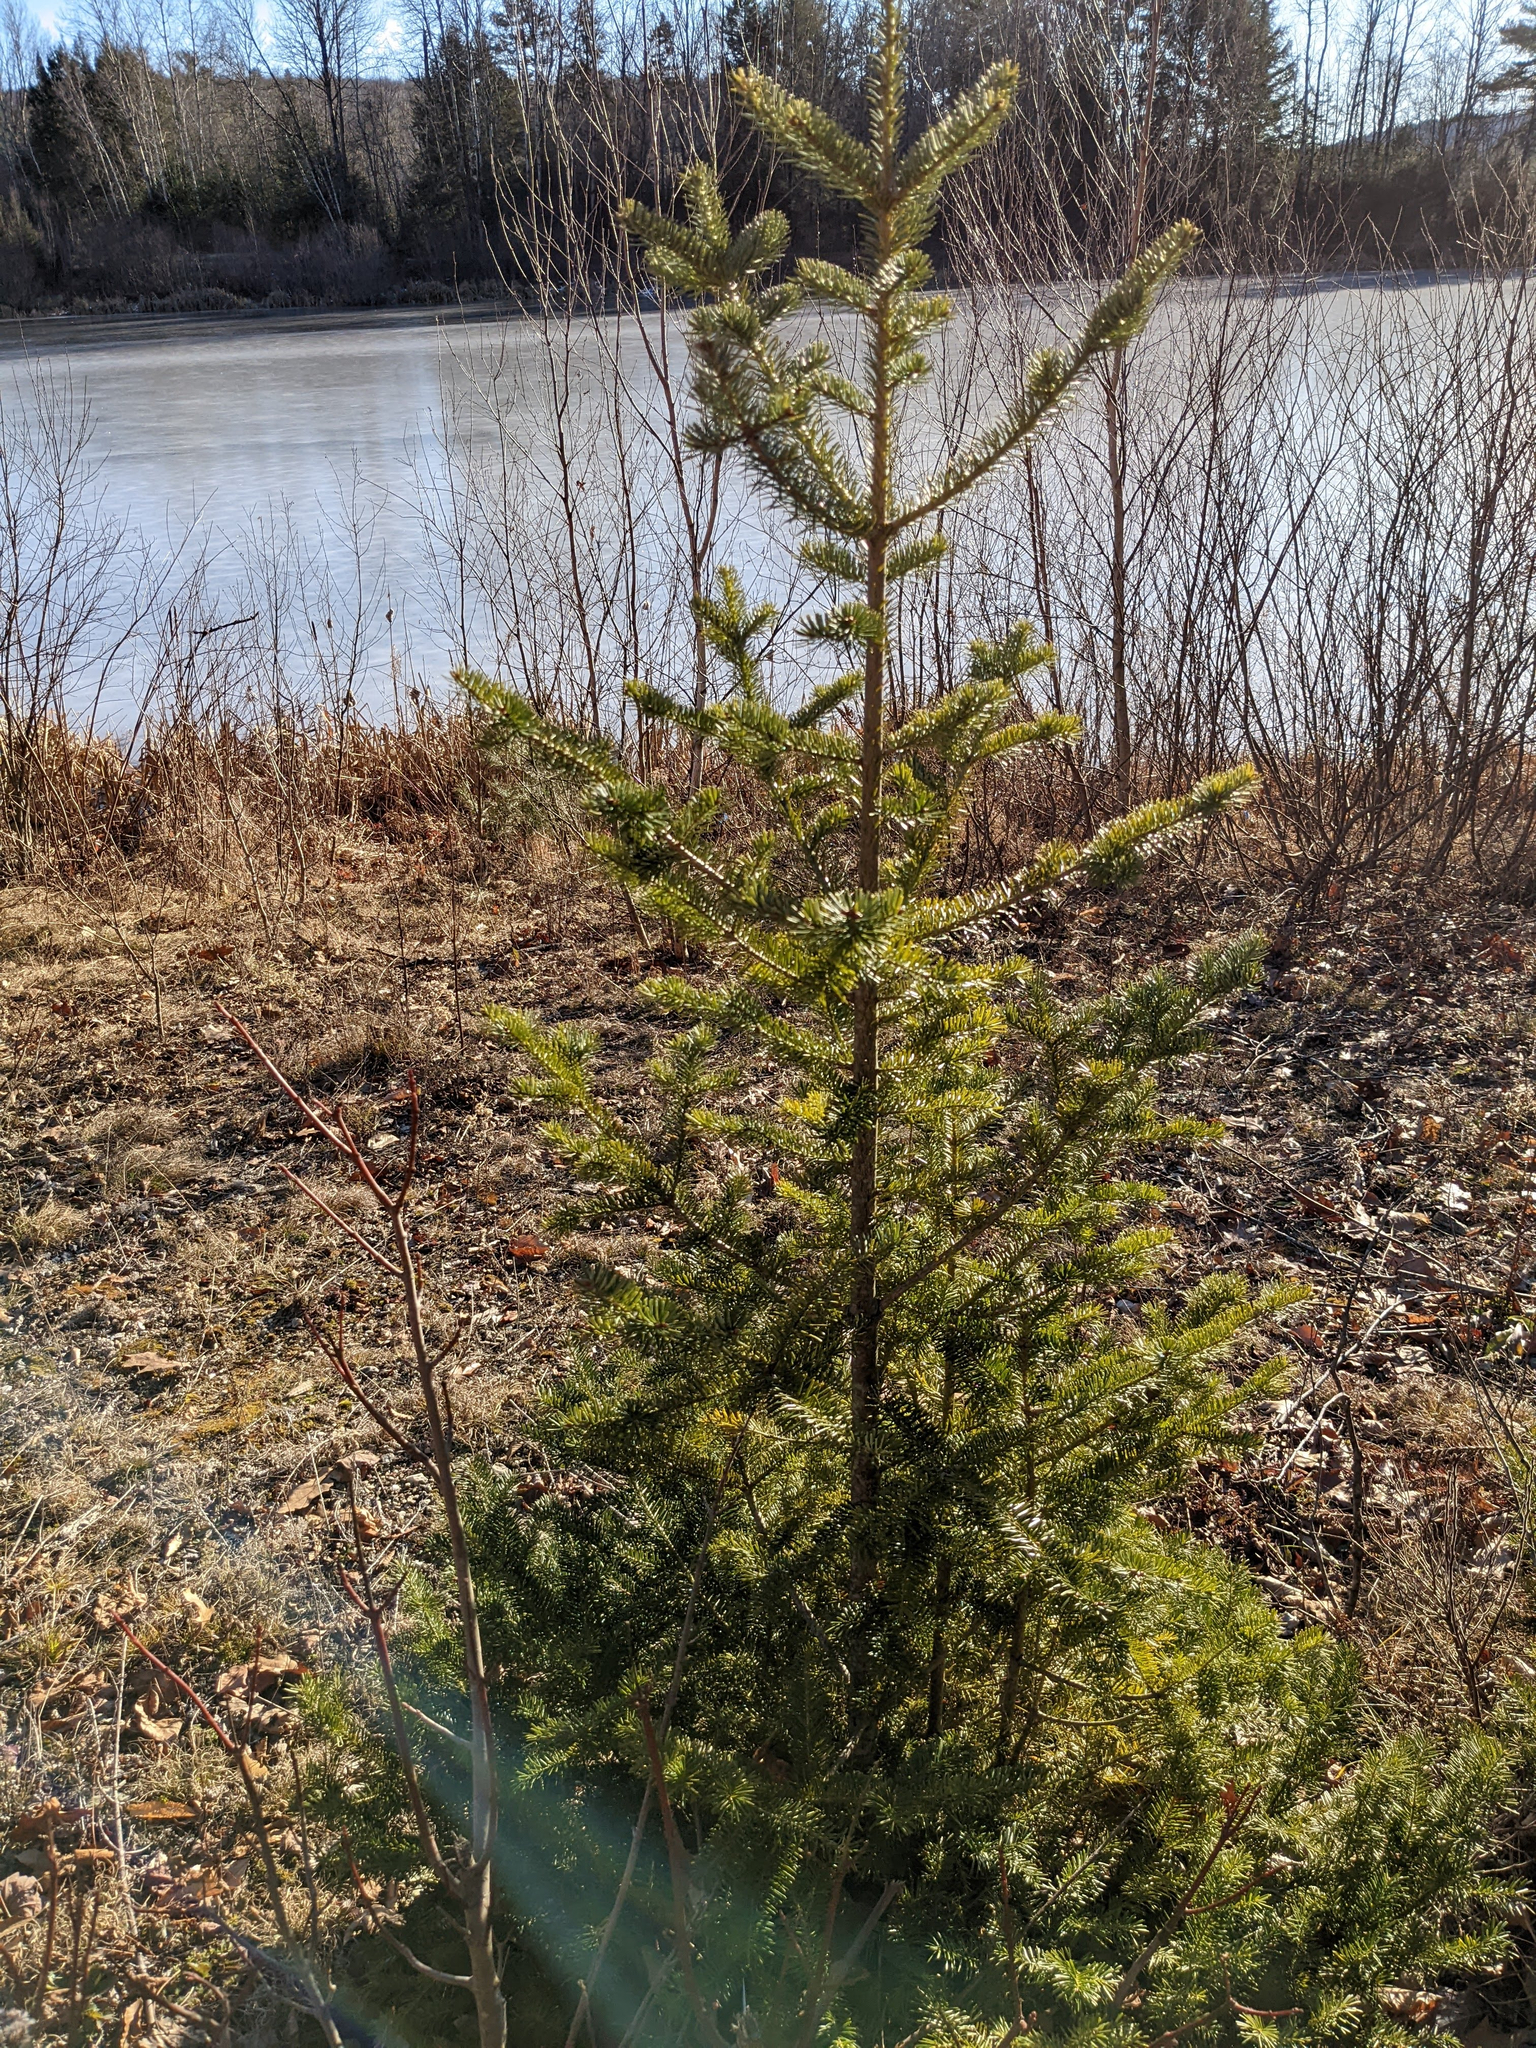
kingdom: Plantae
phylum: Tracheophyta
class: Pinopsida
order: Pinales
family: Pinaceae
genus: Abies
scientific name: Abies balsamea
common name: Balsam fir
